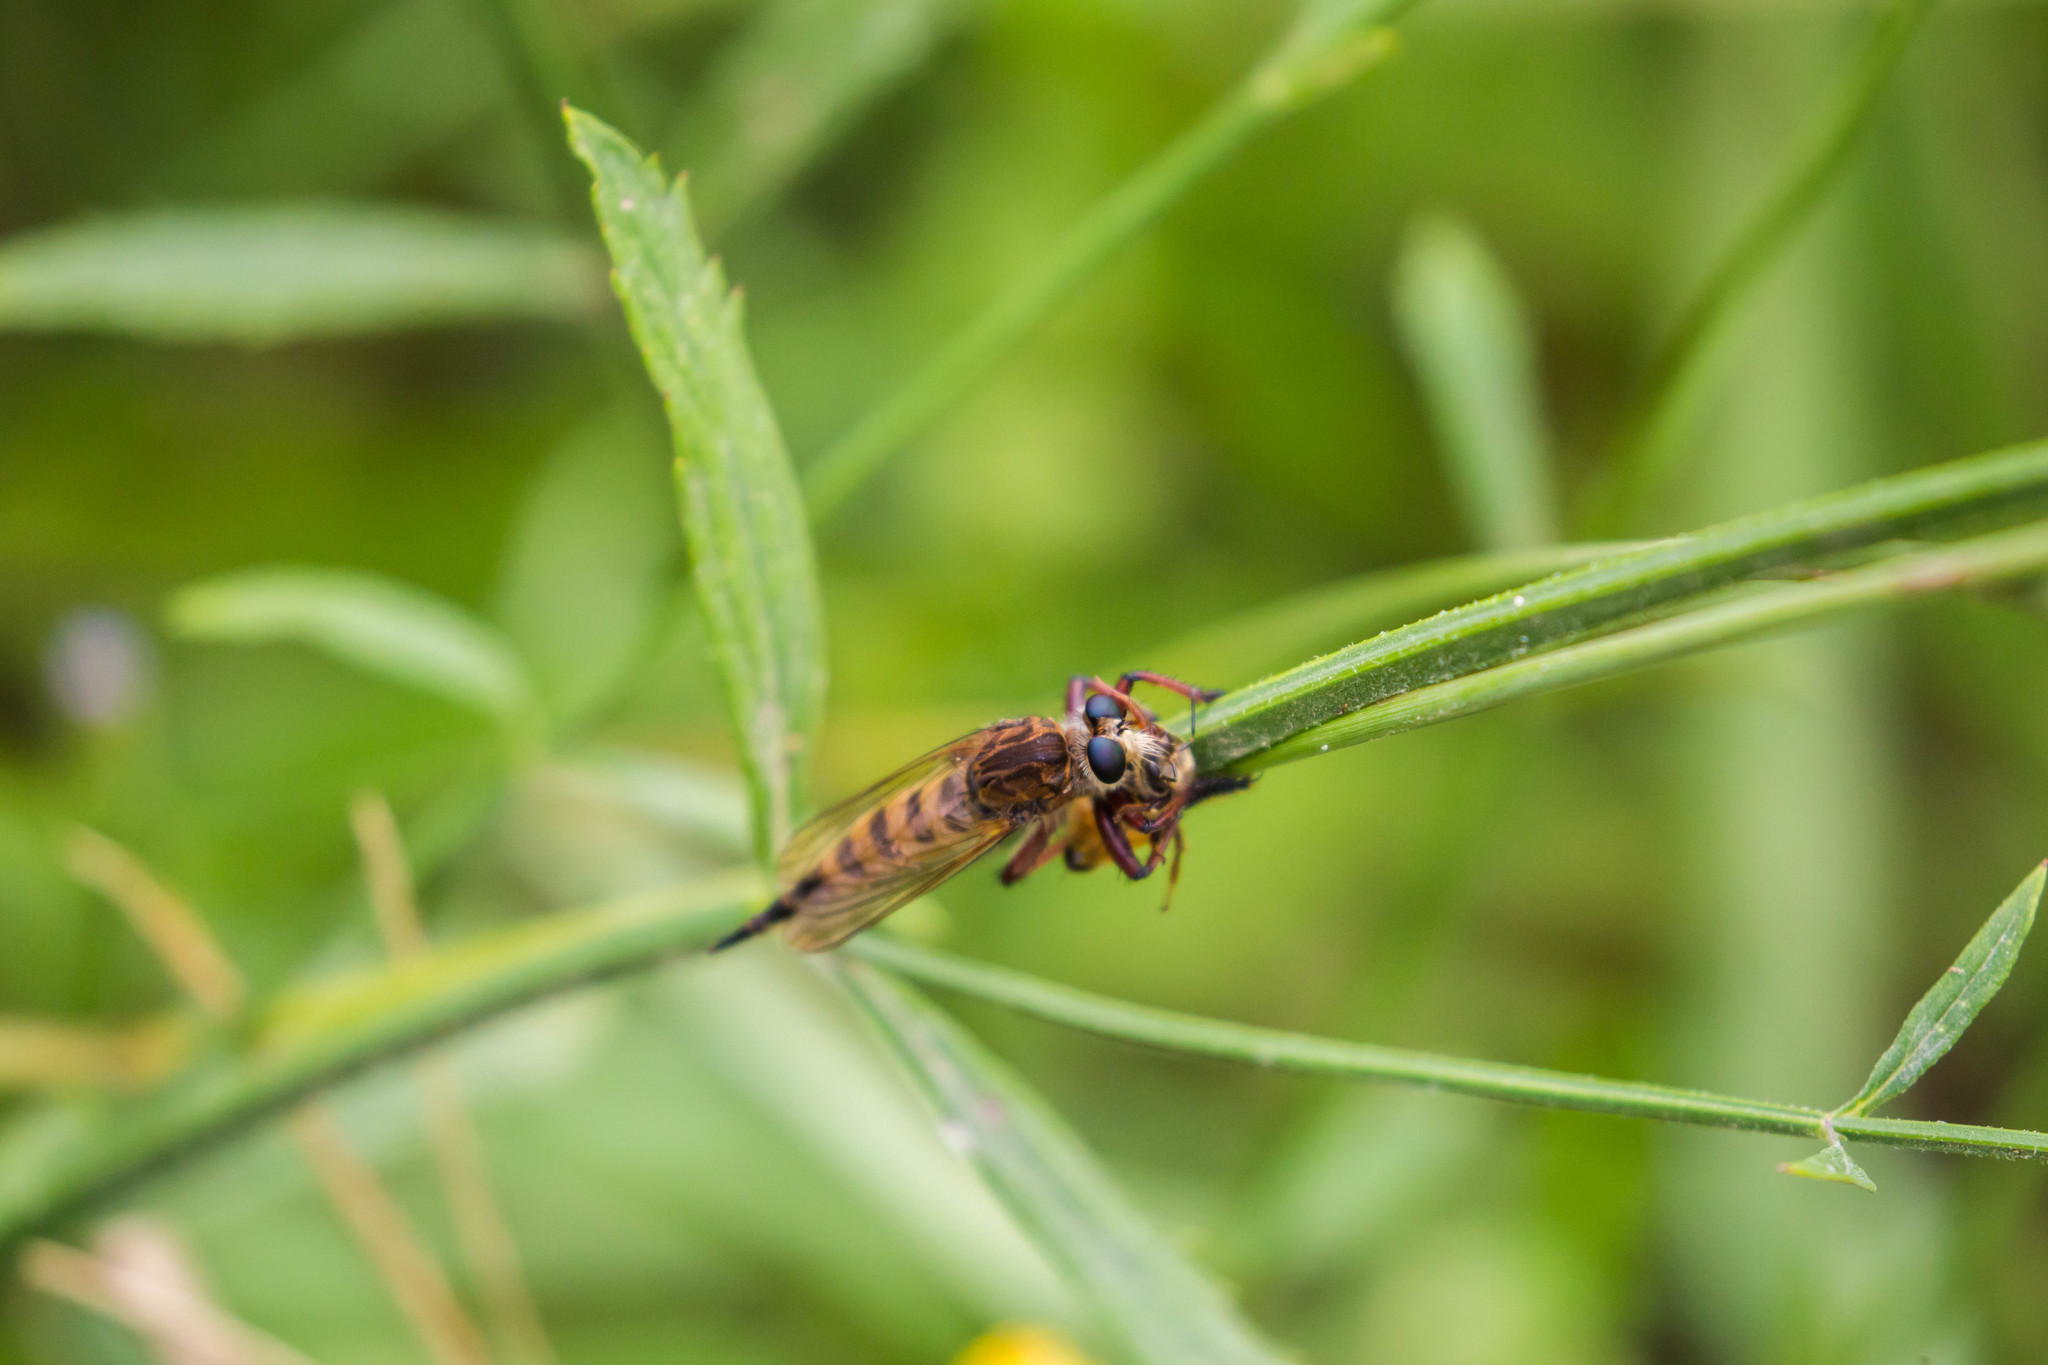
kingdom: Animalia
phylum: Arthropoda
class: Insecta
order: Diptera
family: Asilidae
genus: Promachus
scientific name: Promachus hinei
